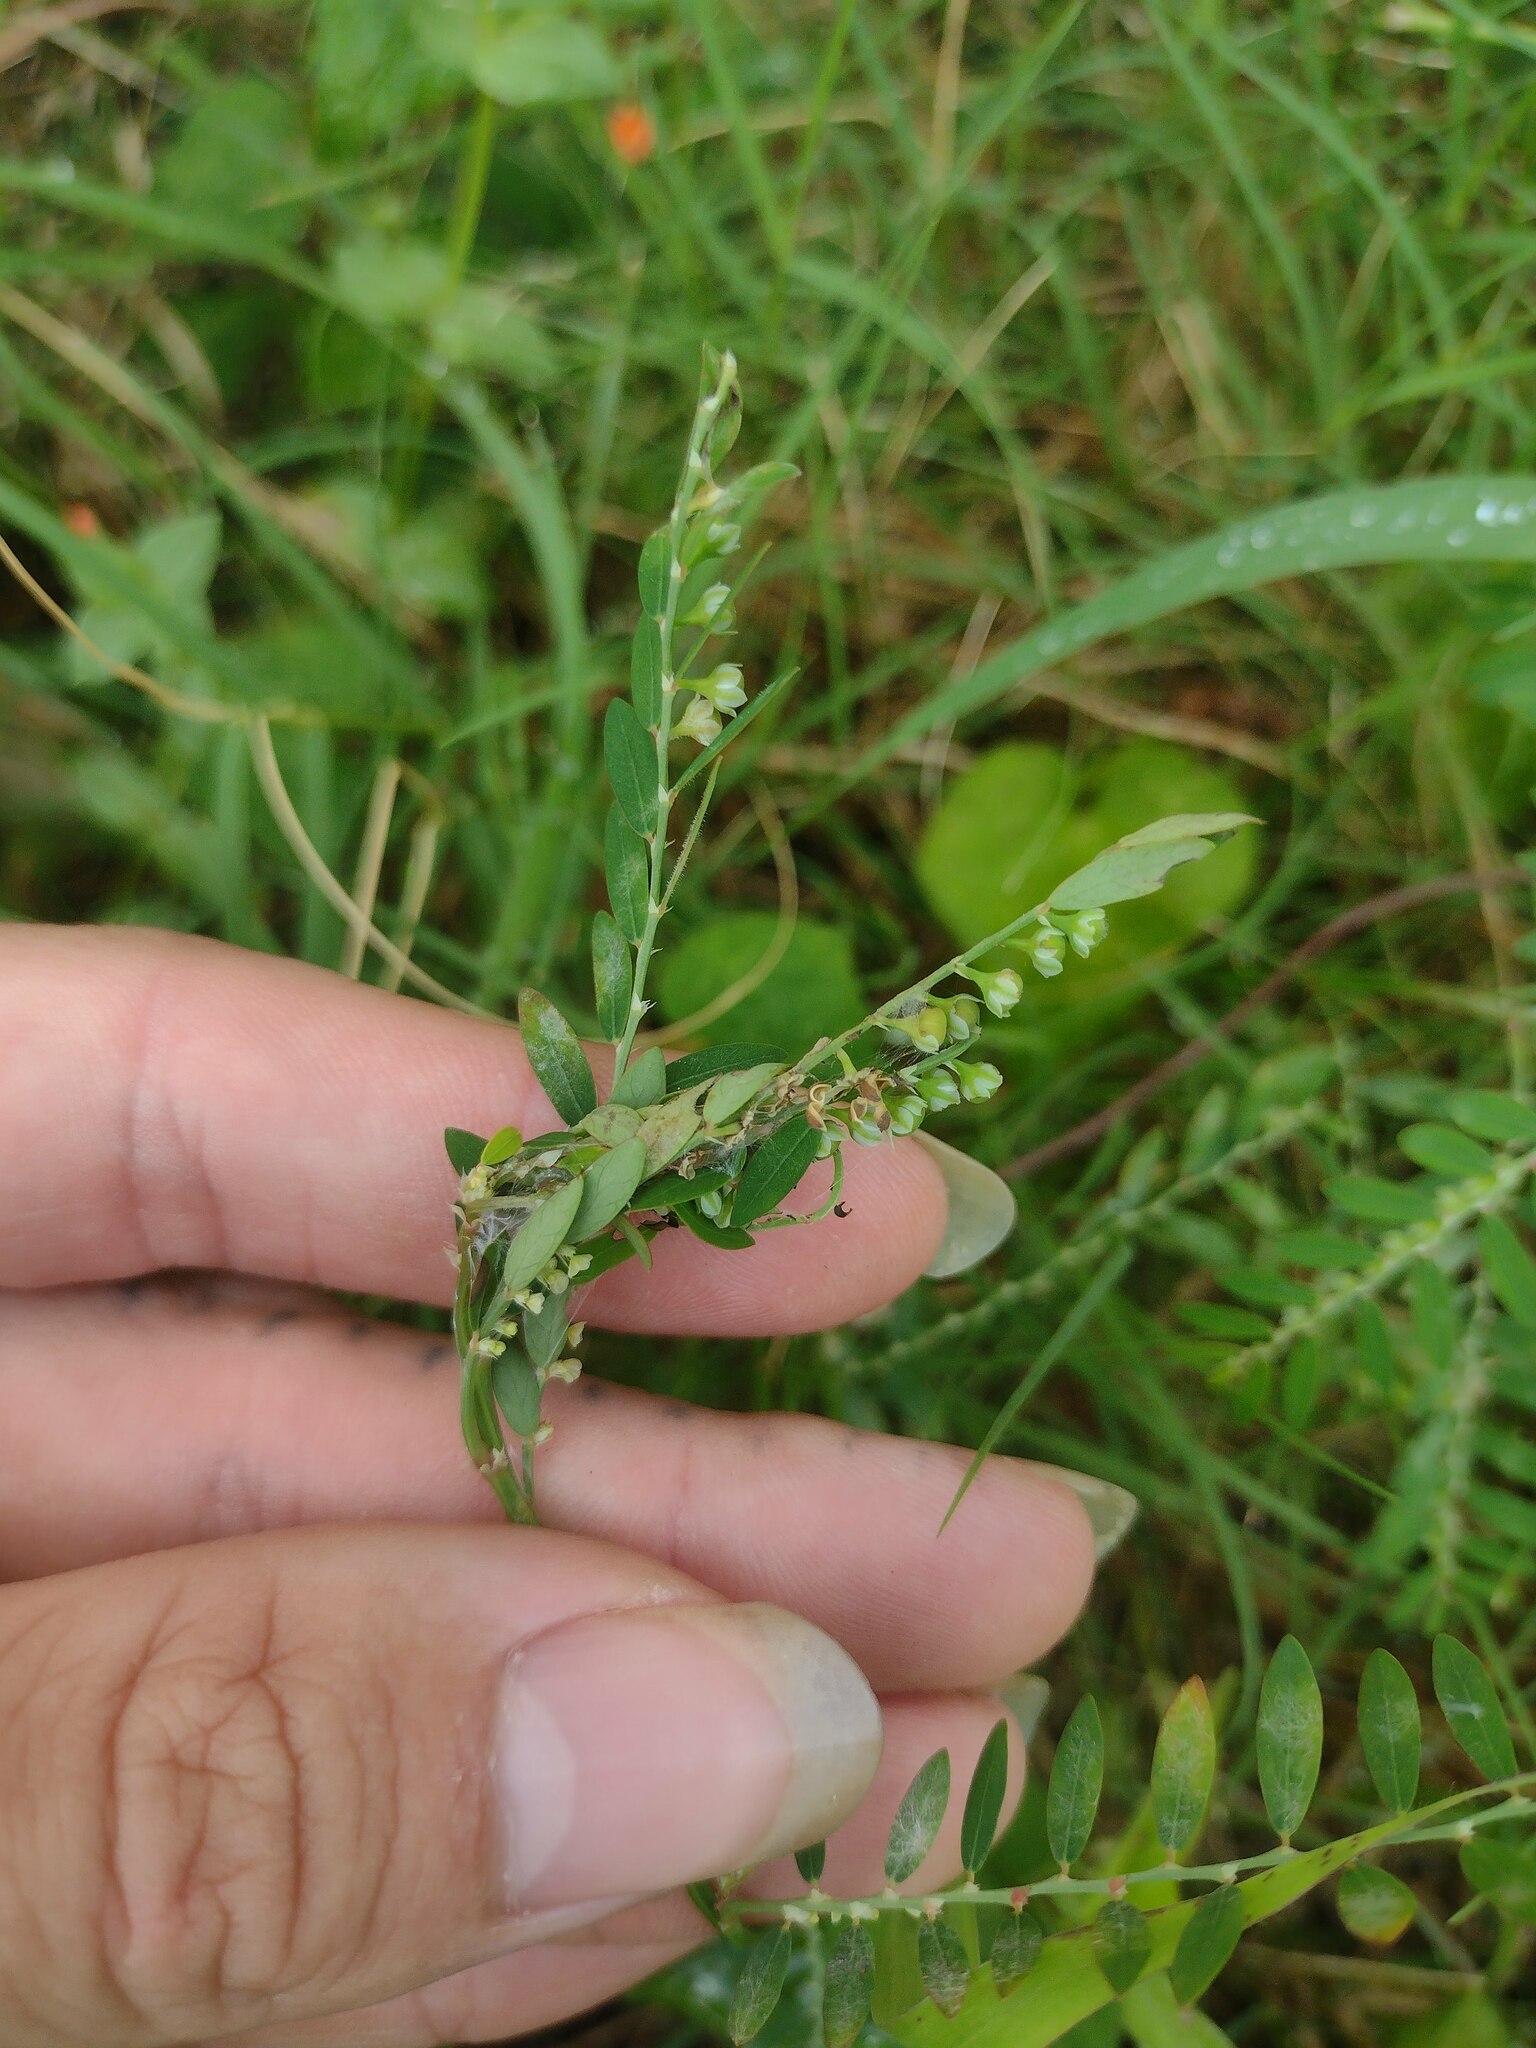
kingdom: Animalia
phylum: Arthropoda
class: Insecta
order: Lepidoptera
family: Tortricidae
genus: Cacocharis
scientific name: Cacocharis cymotoma
